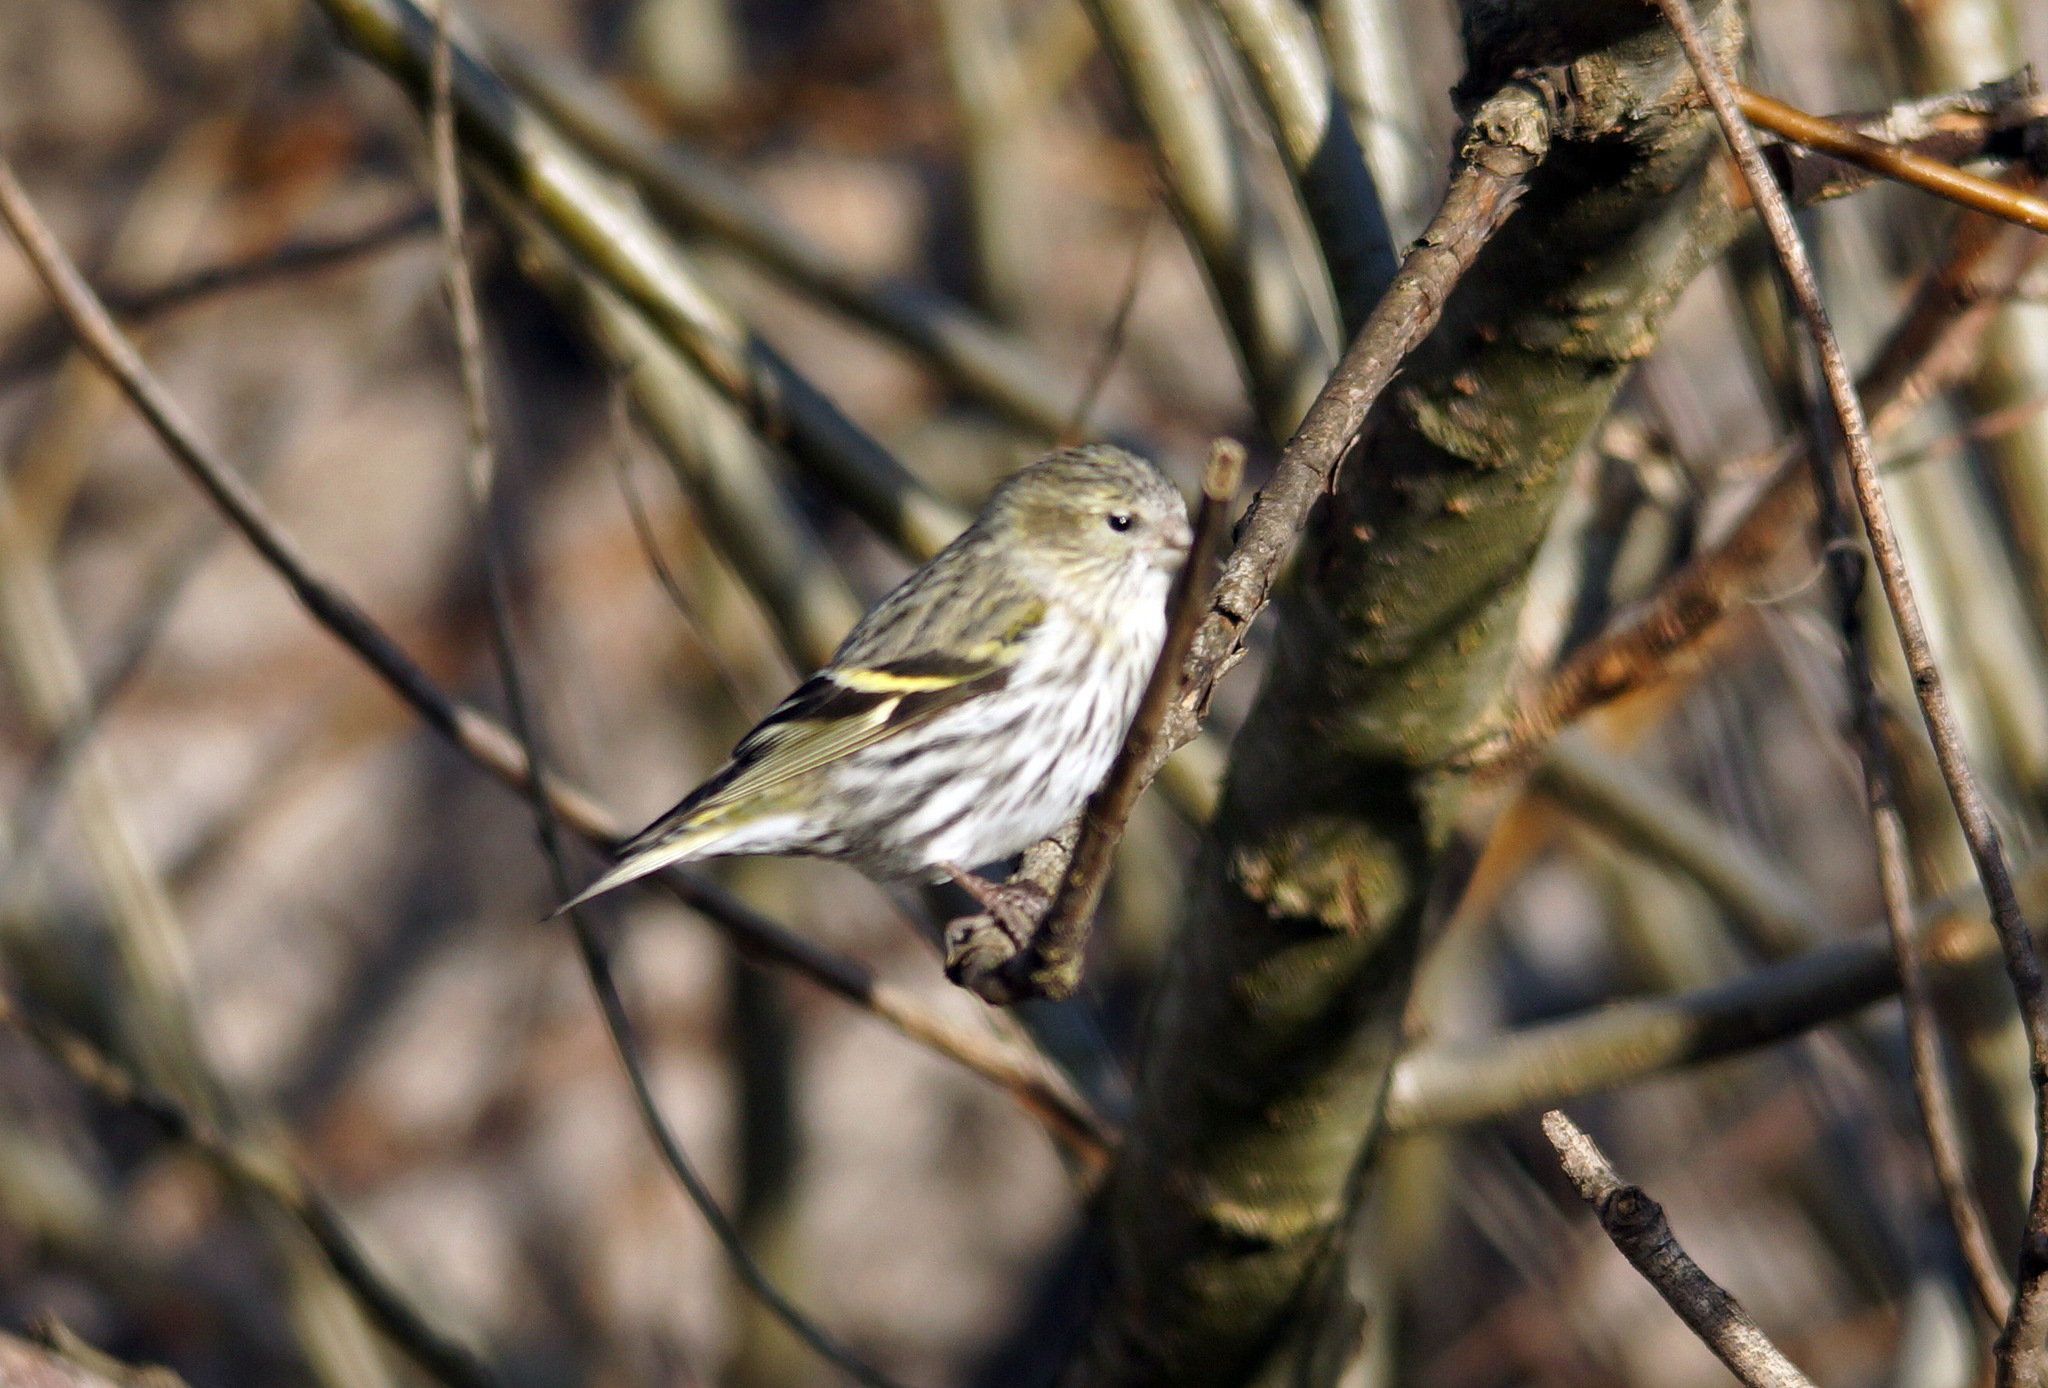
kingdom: Animalia
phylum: Chordata
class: Aves
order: Passeriformes
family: Fringillidae
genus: Spinus
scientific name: Spinus spinus
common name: Eurasian siskin
